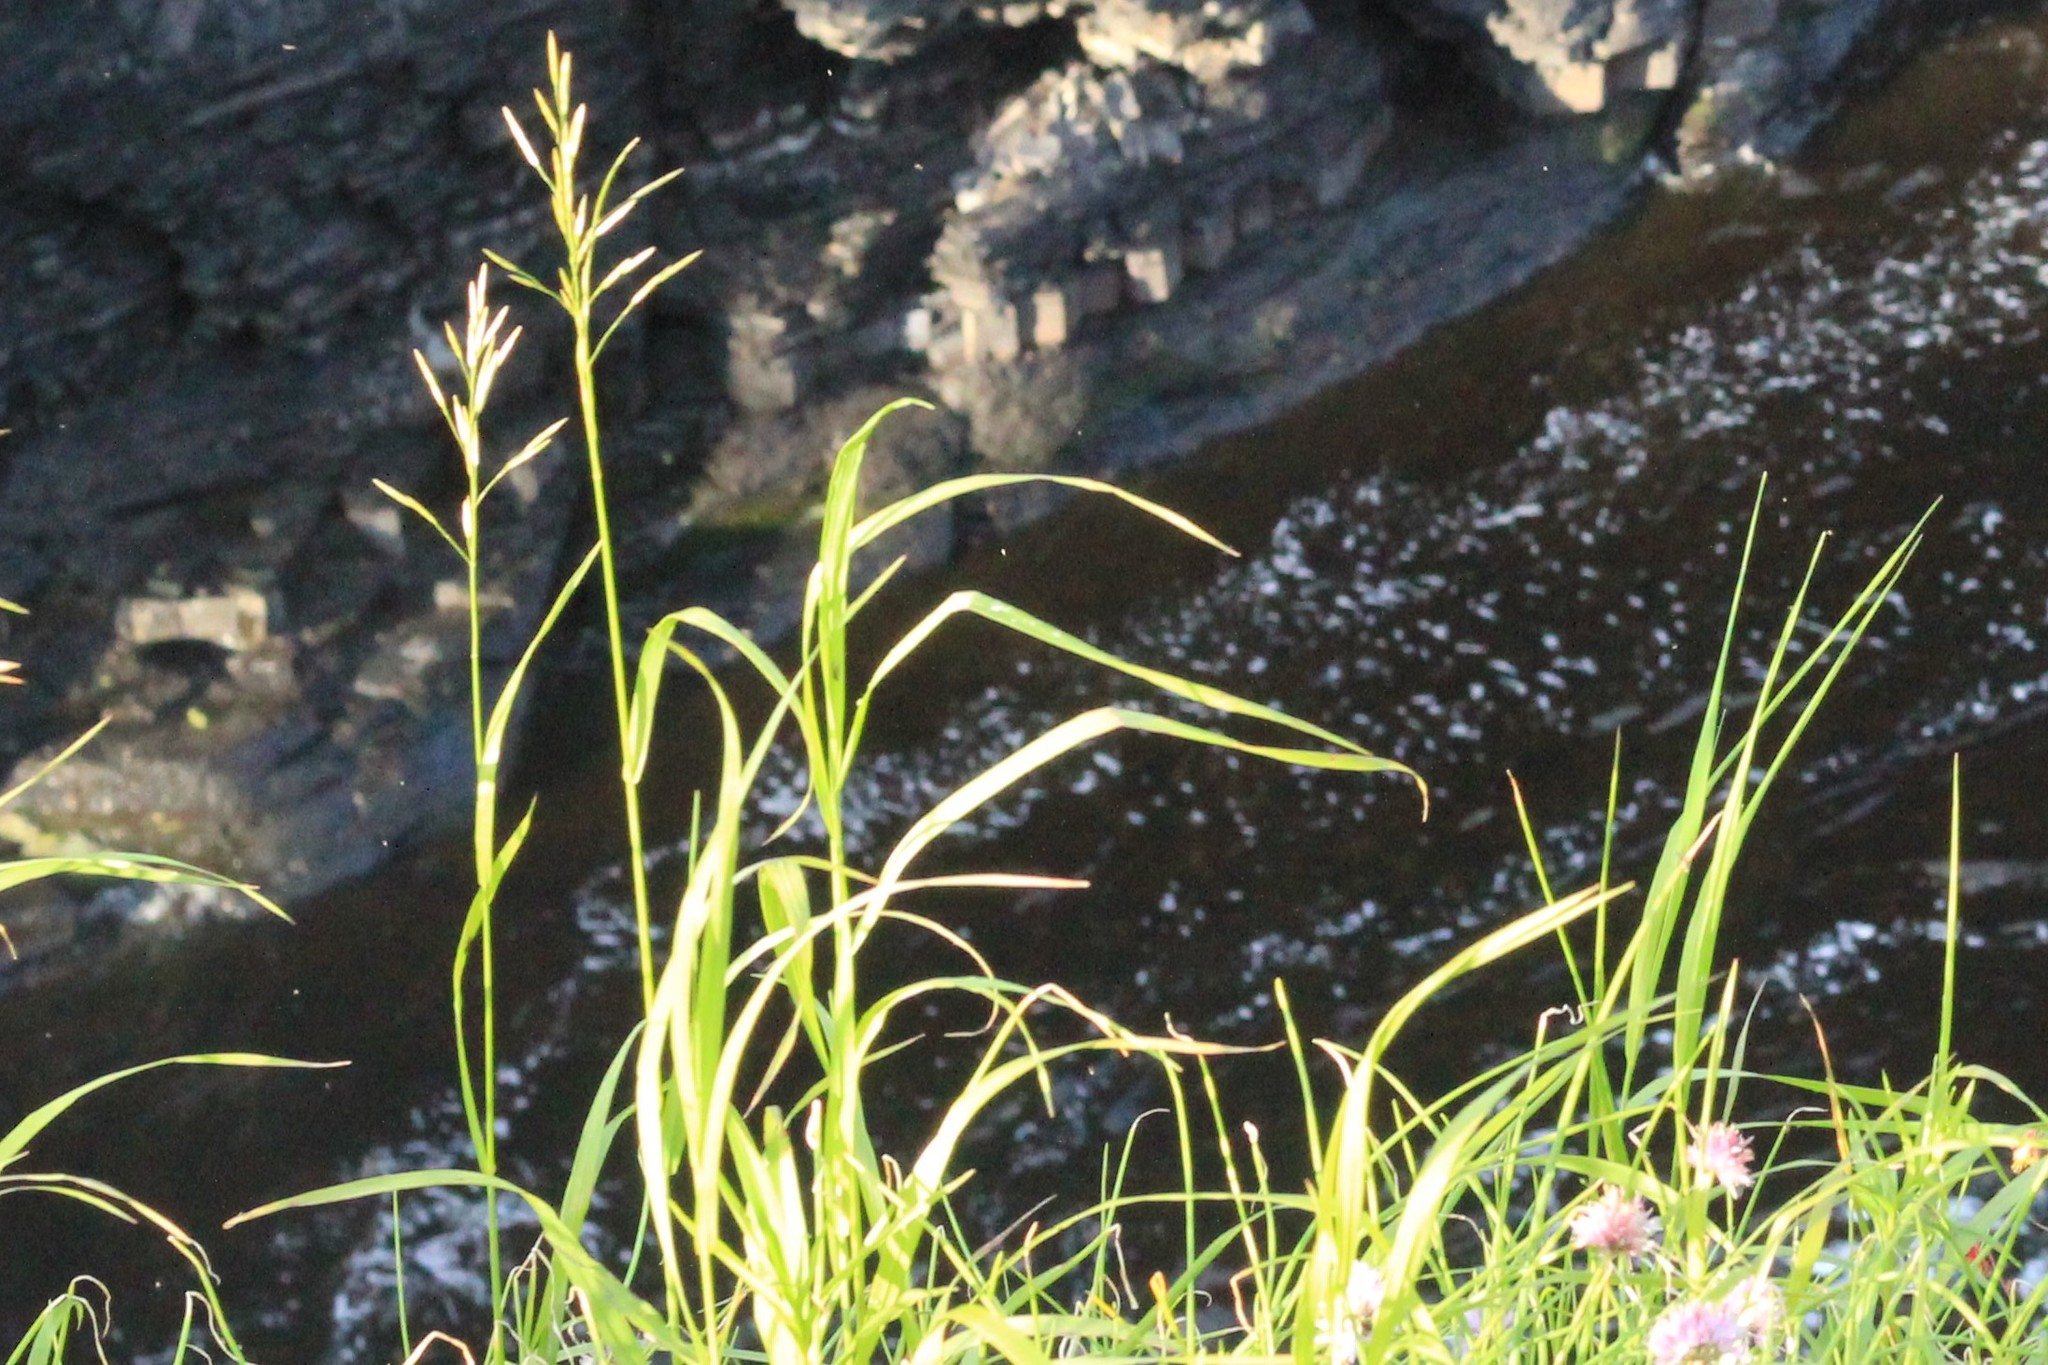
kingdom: Plantae
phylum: Tracheophyta
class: Liliopsida
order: Poales
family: Poaceae
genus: Bromus
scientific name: Bromus inermis
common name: Smooth brome
